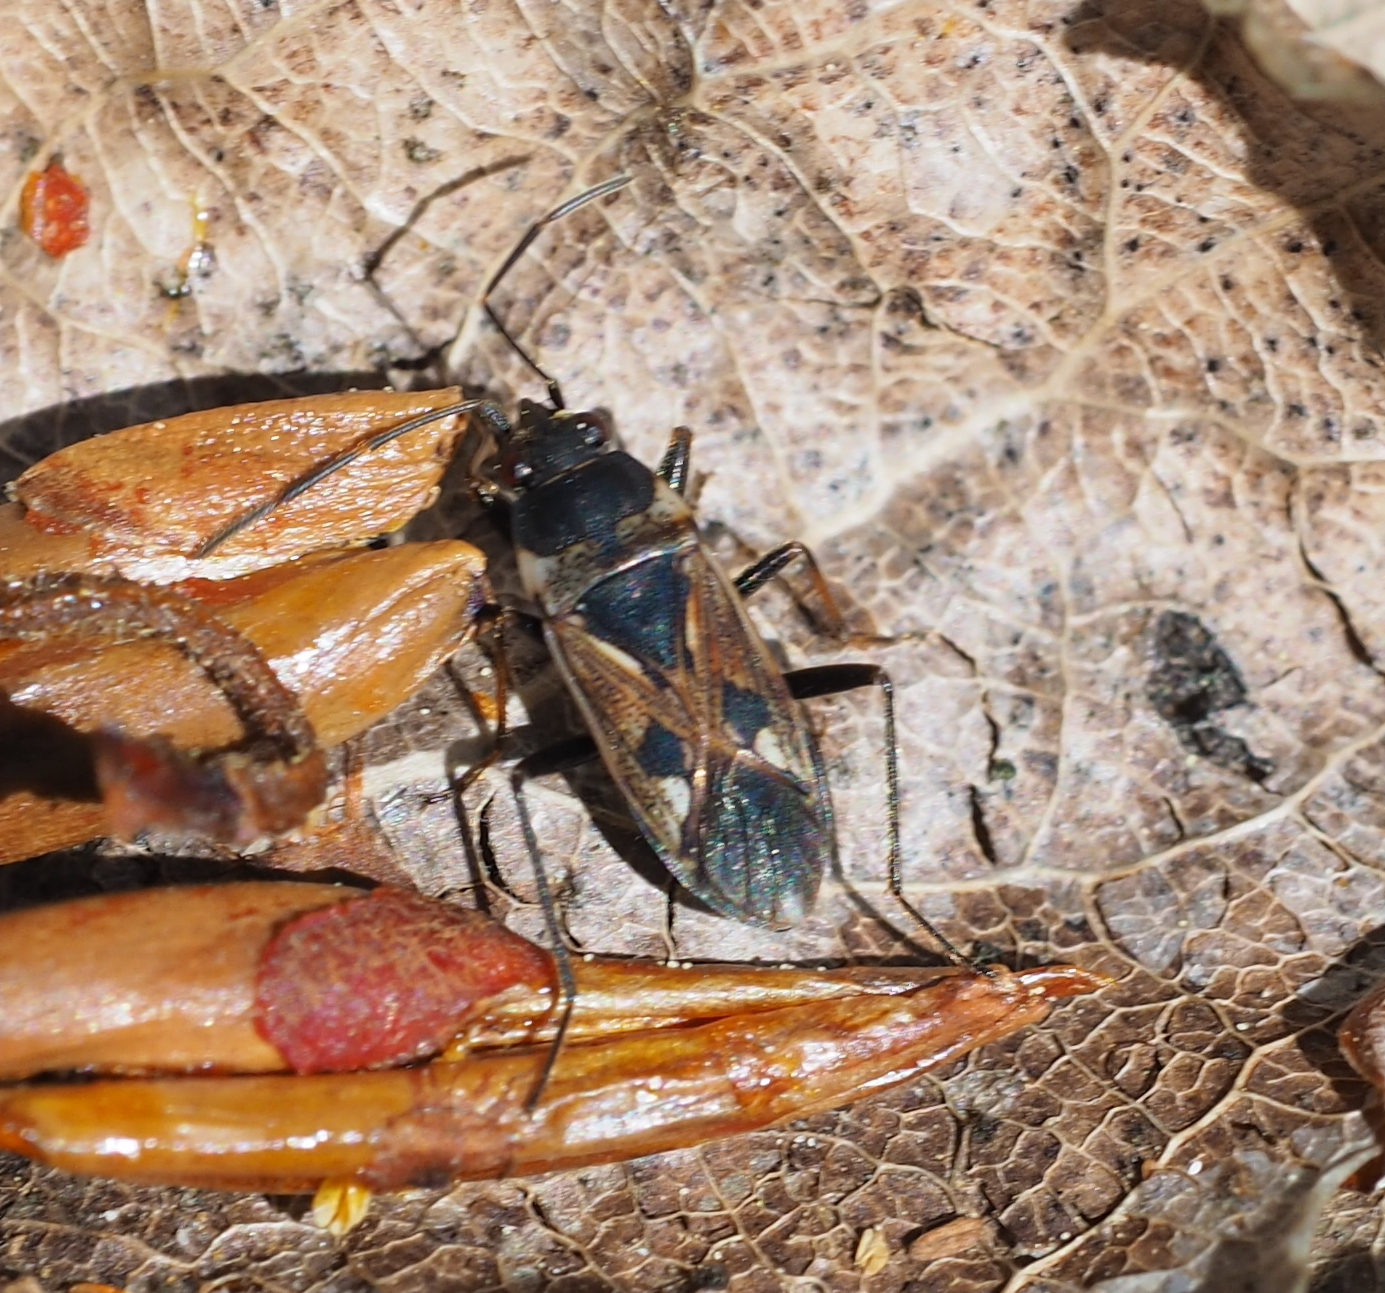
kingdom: Animalia
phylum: Arthropoda
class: Insecta
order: Hemiptera
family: Rhyparochromidae
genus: Rhyparochromus
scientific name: Rhyparochromus vulgaris
